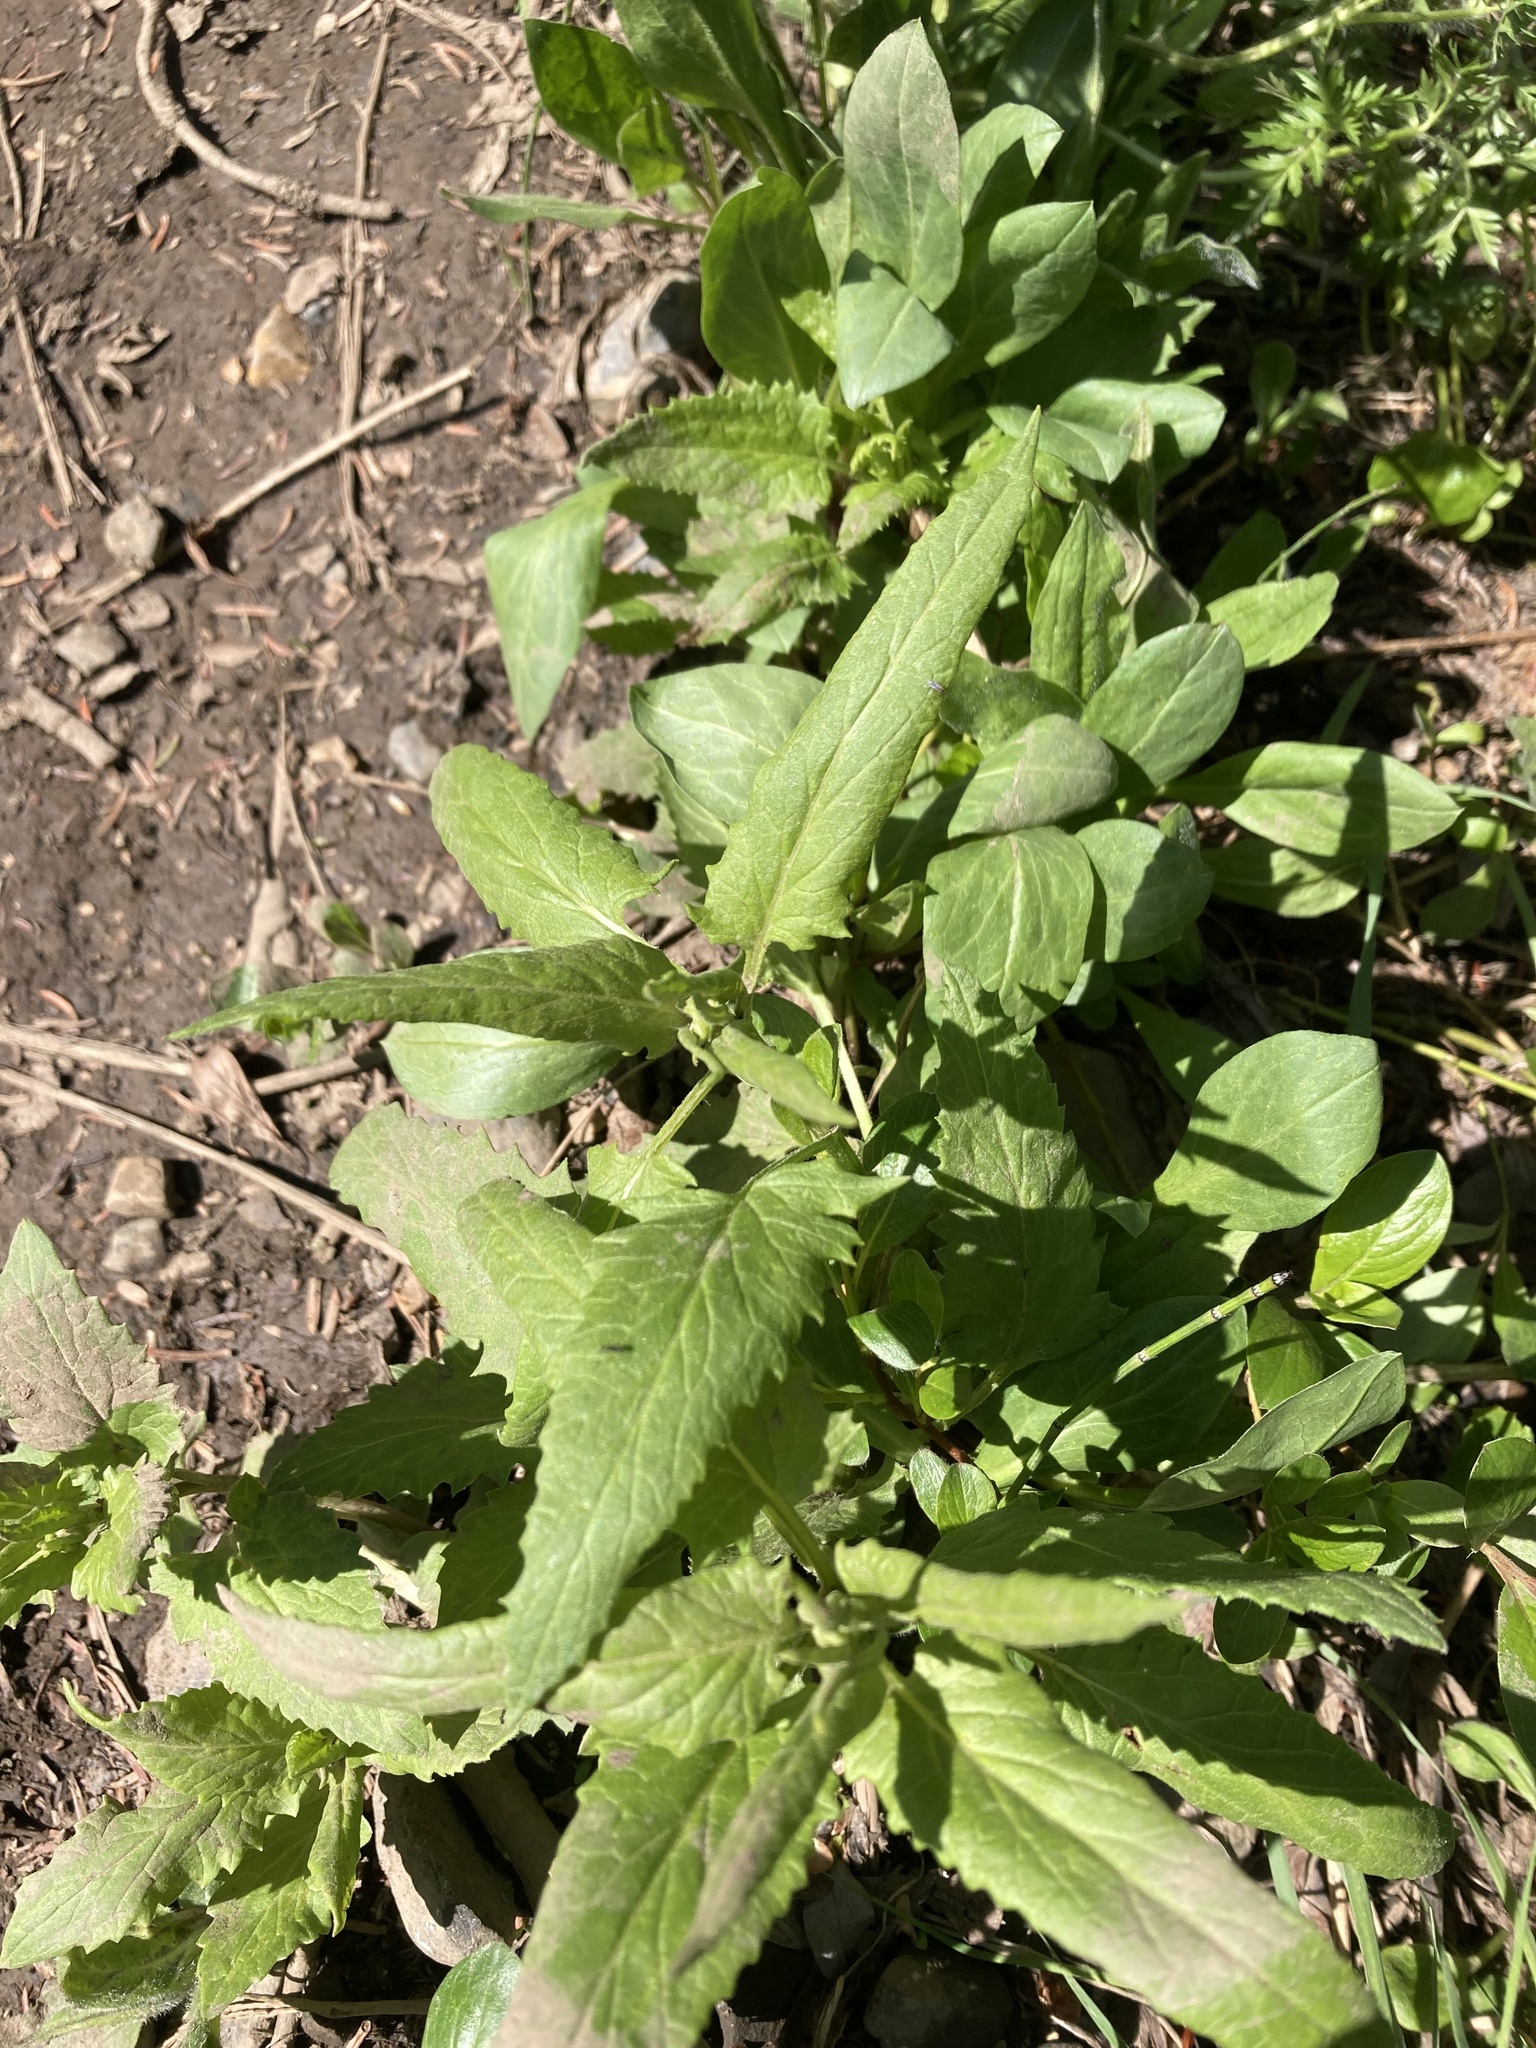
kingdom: Plantae
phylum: Tracheophyta
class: Magnoliopsida
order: Asterales
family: Asteraceae
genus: Senecio
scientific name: Senecio triangularis
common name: Arrowleaf butterweed
